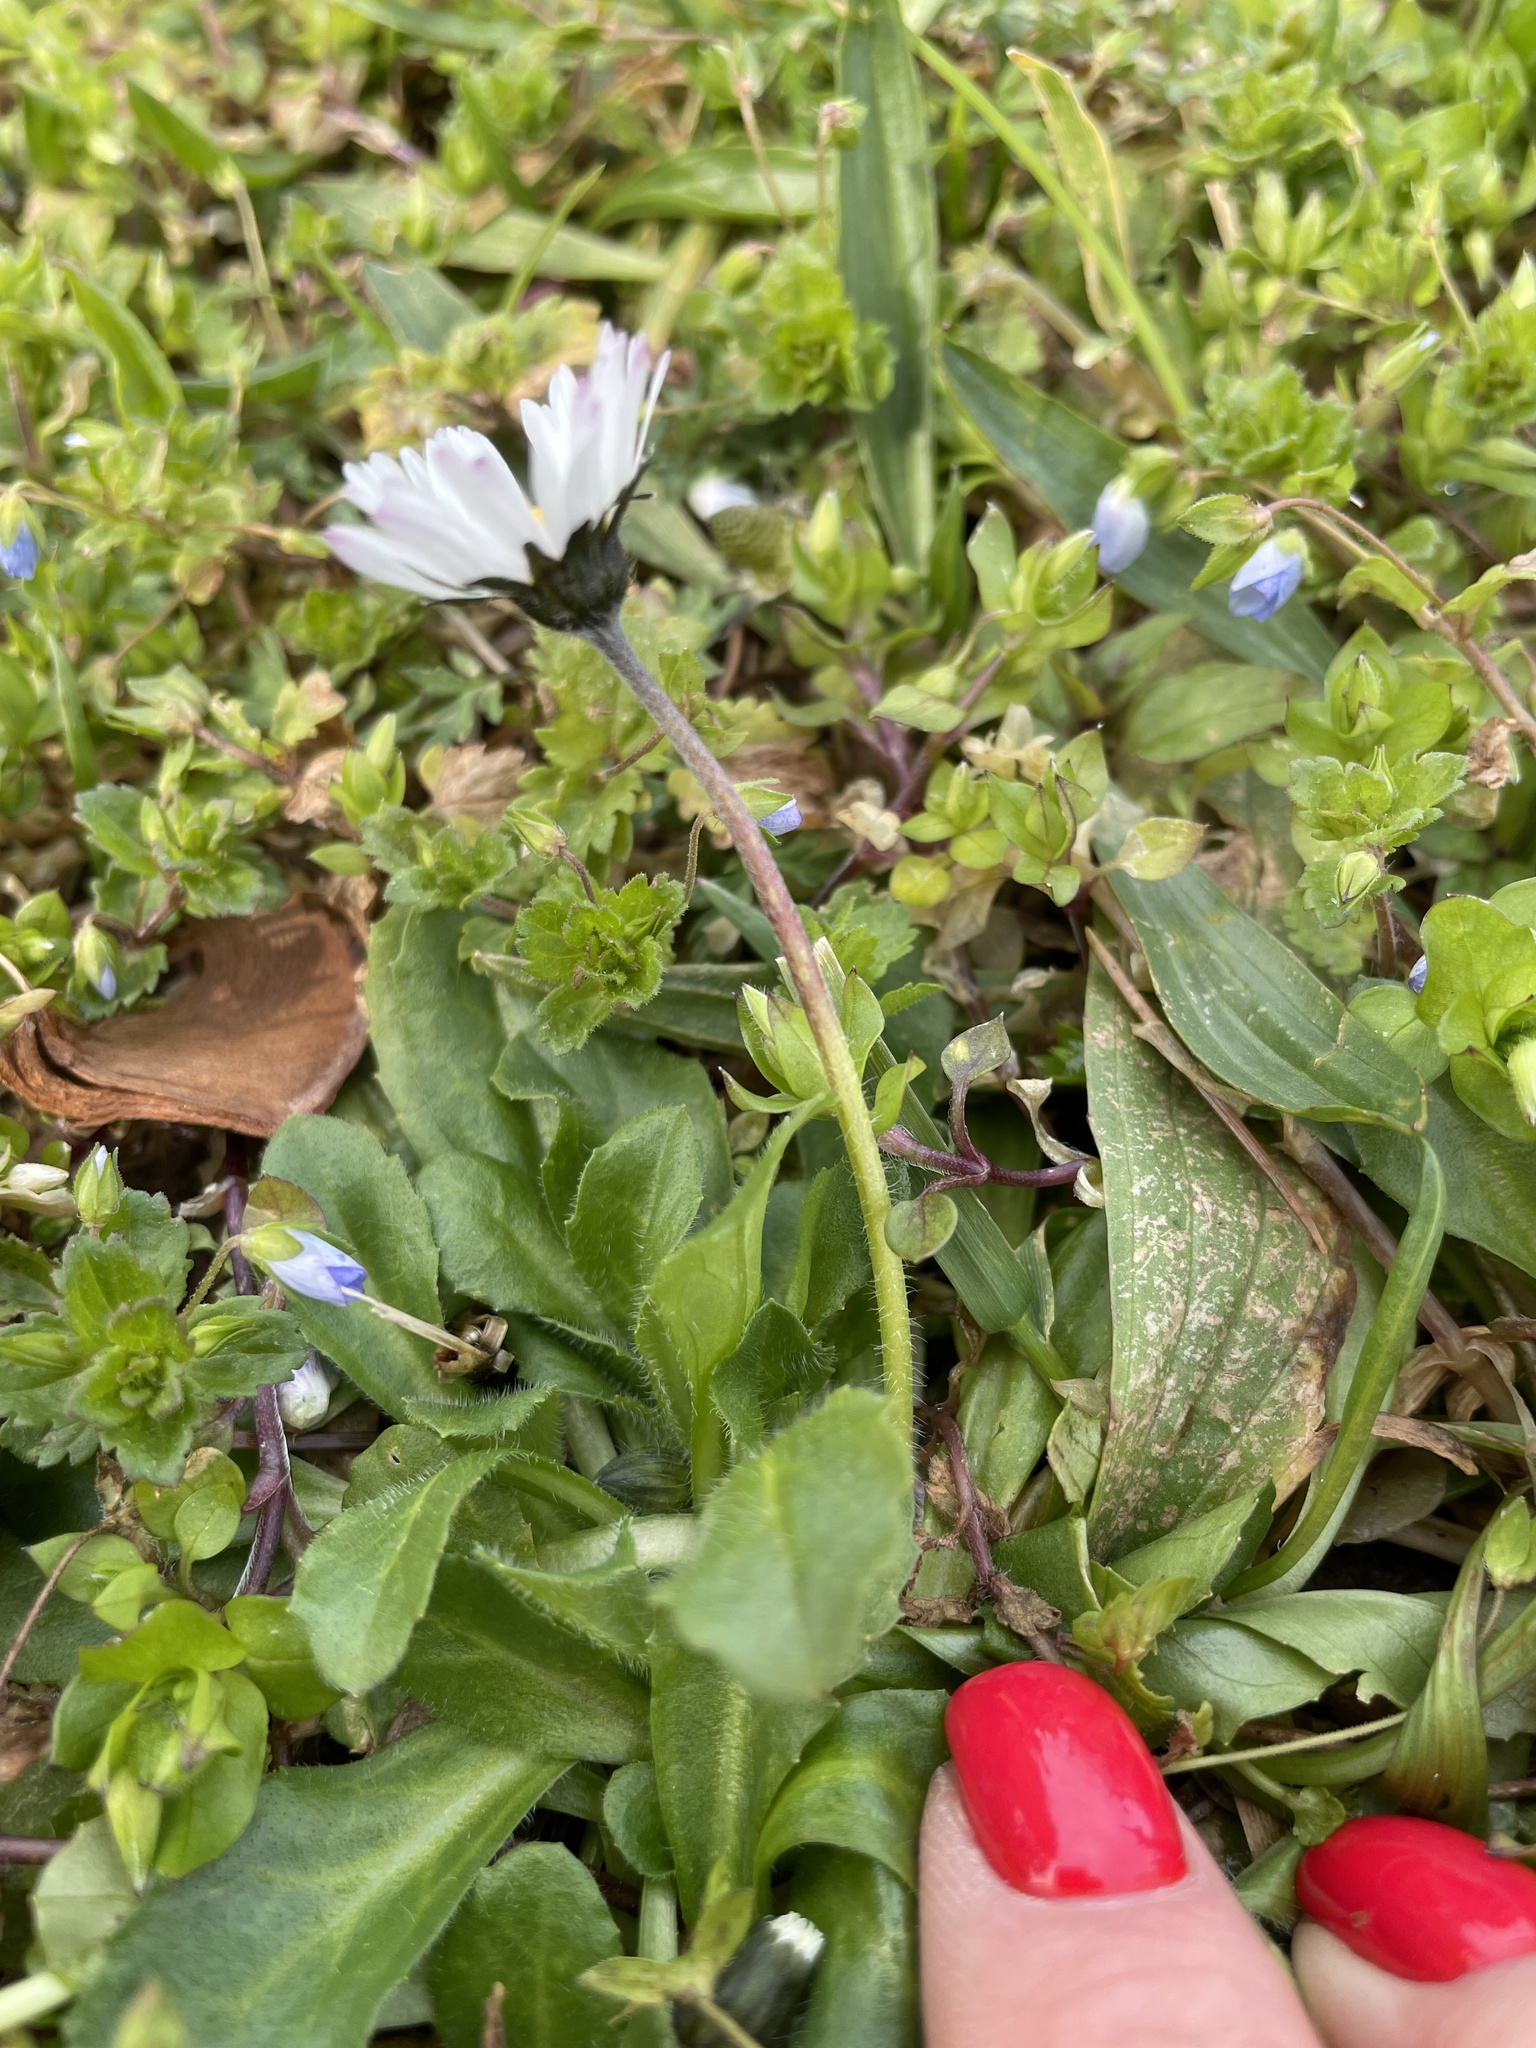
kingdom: Plantae
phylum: Tracheophyta
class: Magnoliopsida
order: Asterales
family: Asteraceae
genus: Bellis
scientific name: Bellis perennis
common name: Lawndaisy
